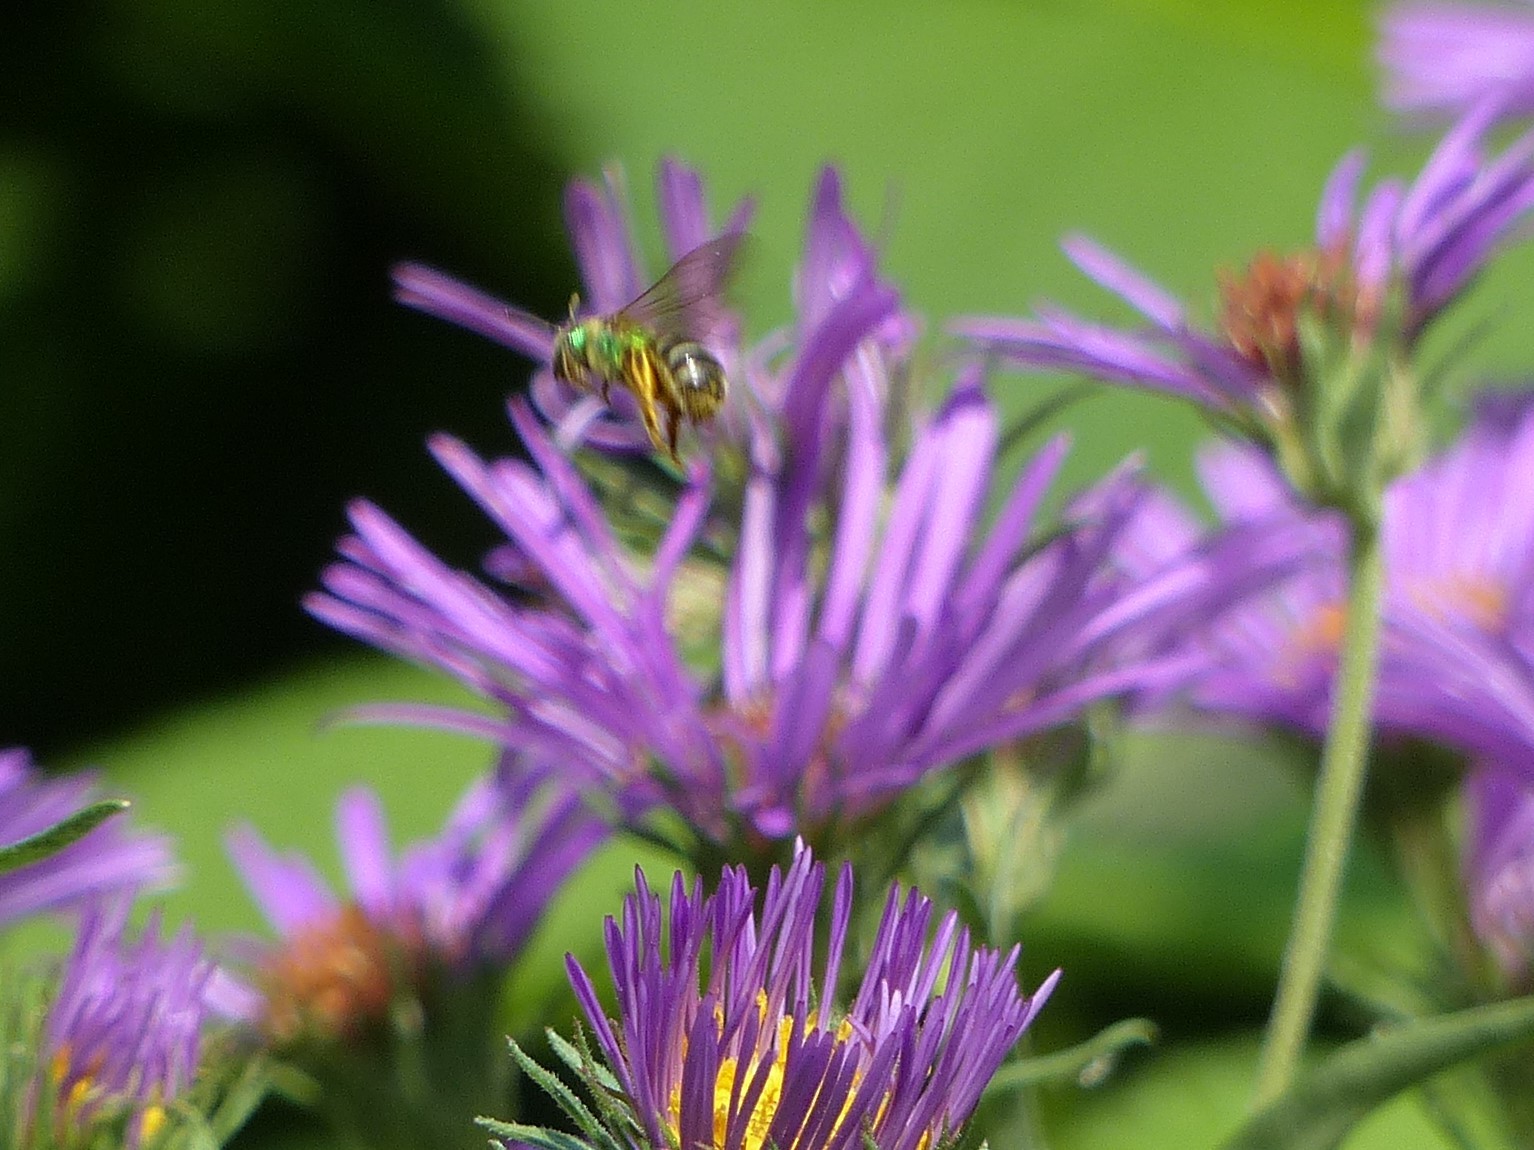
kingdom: Animalia
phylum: Arthropoda
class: Insecta
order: Hymenoptera
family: Halictidae
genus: Agapostemon
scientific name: Agapostemon virescens
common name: Bicolored striped sweat bee
